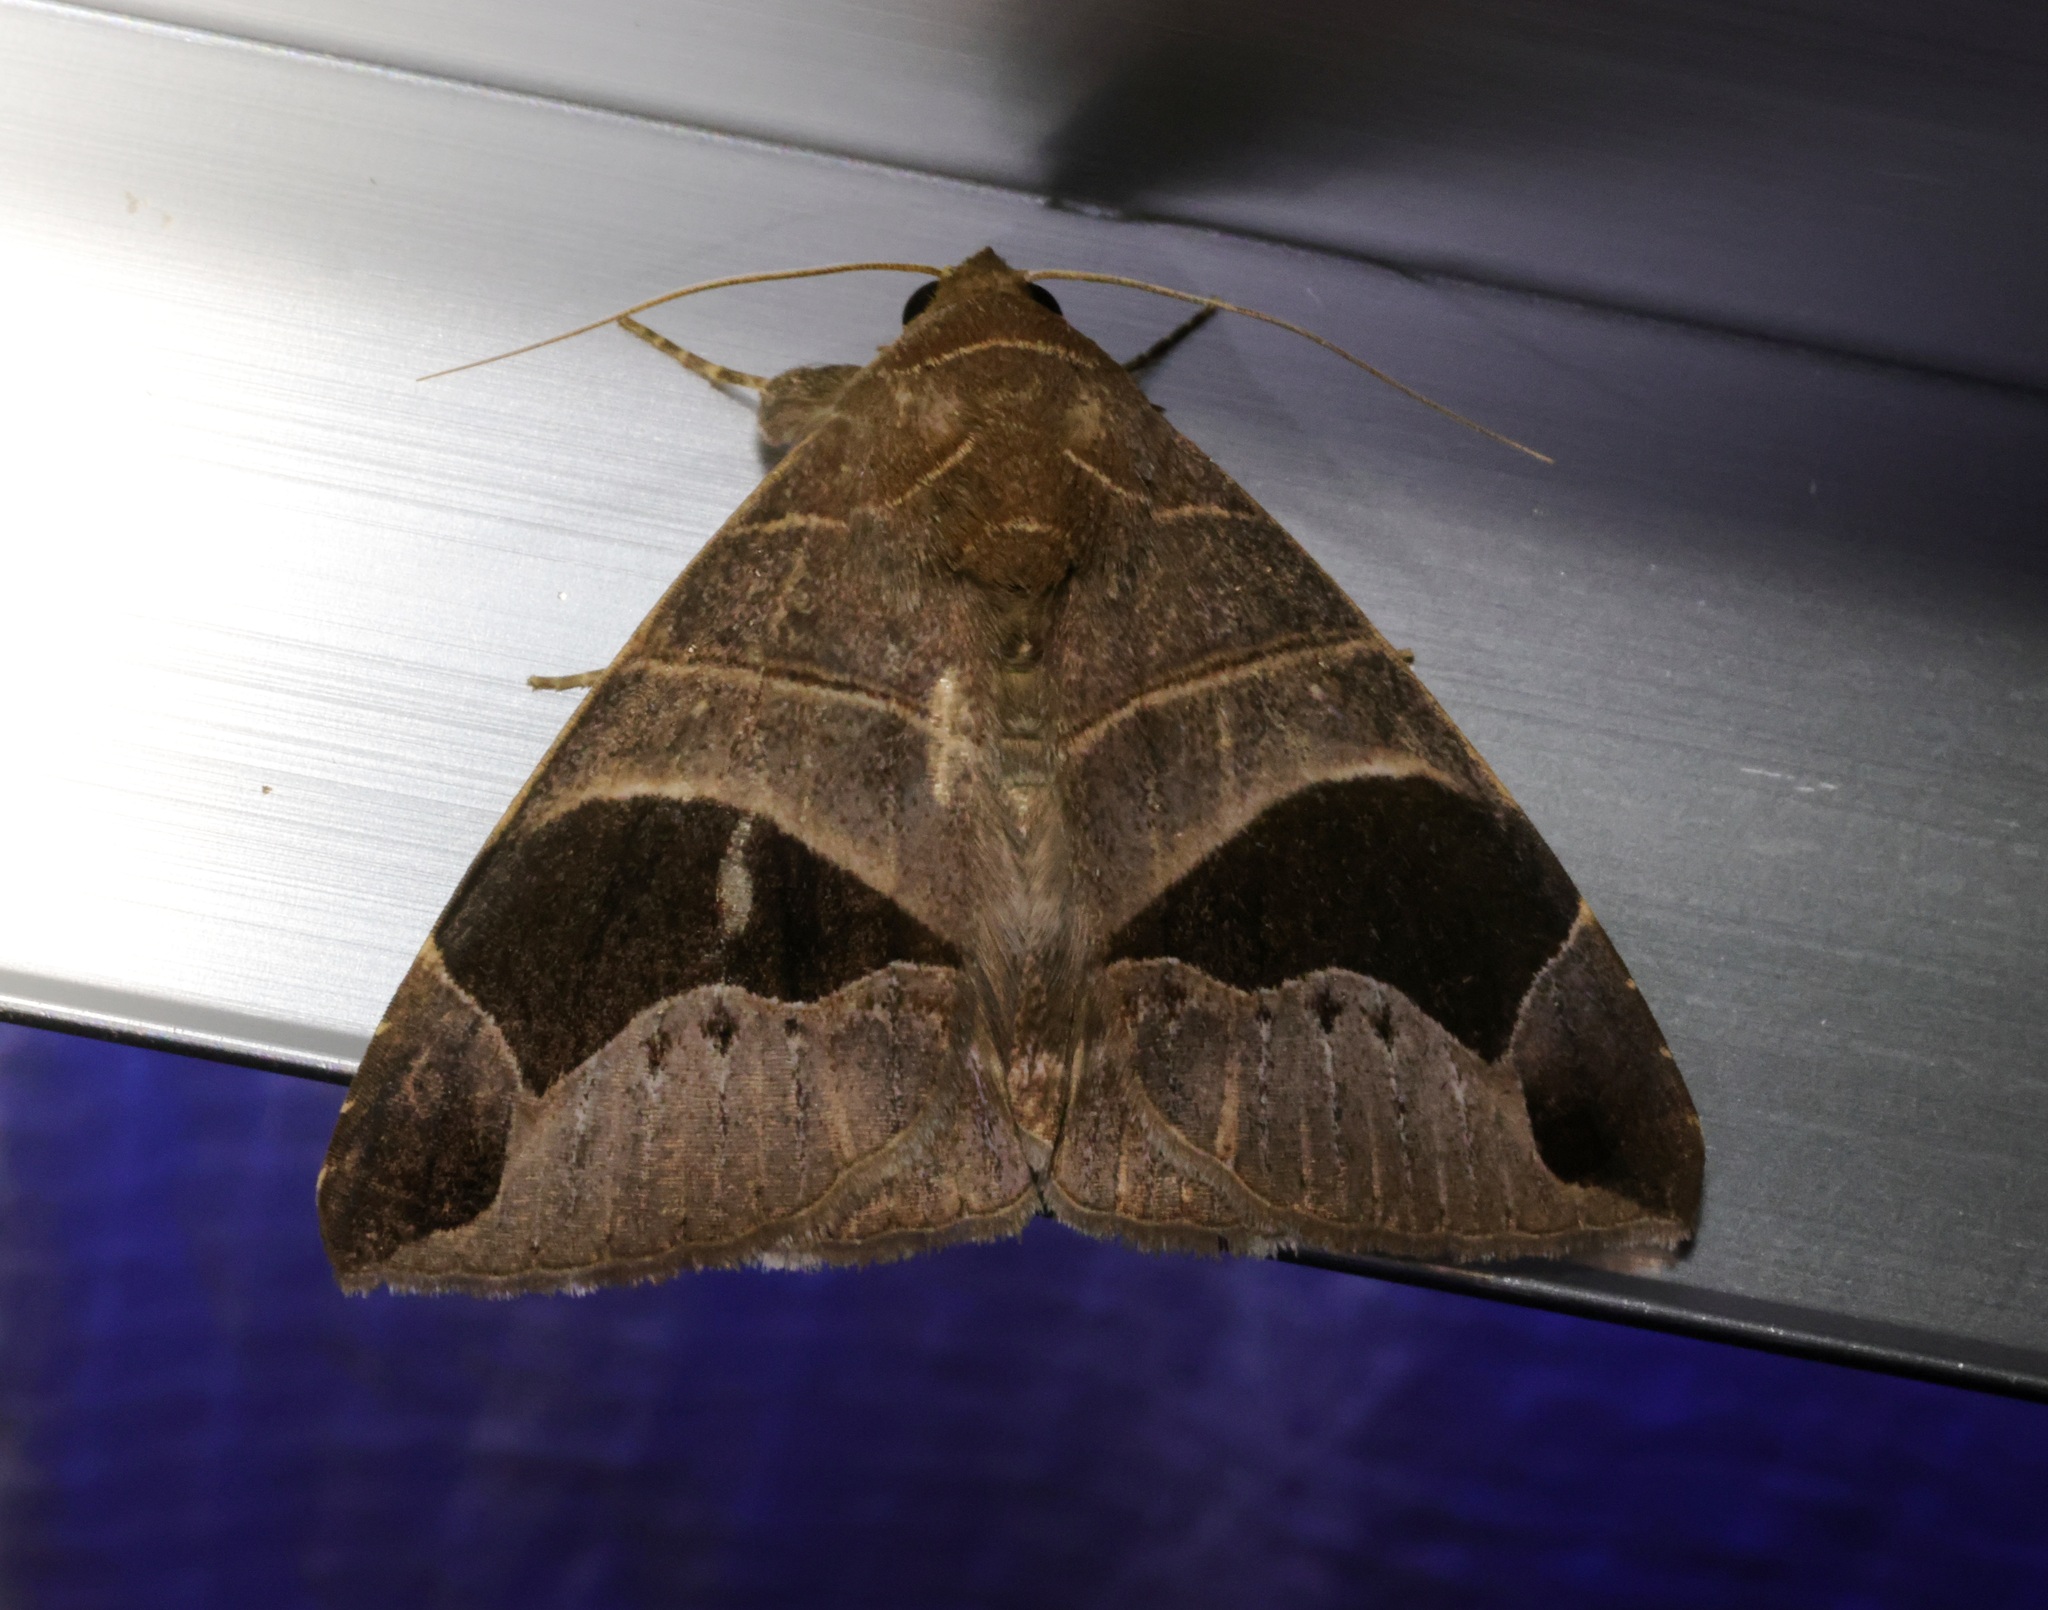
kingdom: Animalia
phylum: Arthropoda
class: Insecta
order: Lepidoptera
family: Erebidae
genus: Bastilla
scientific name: Bastilla joviana
